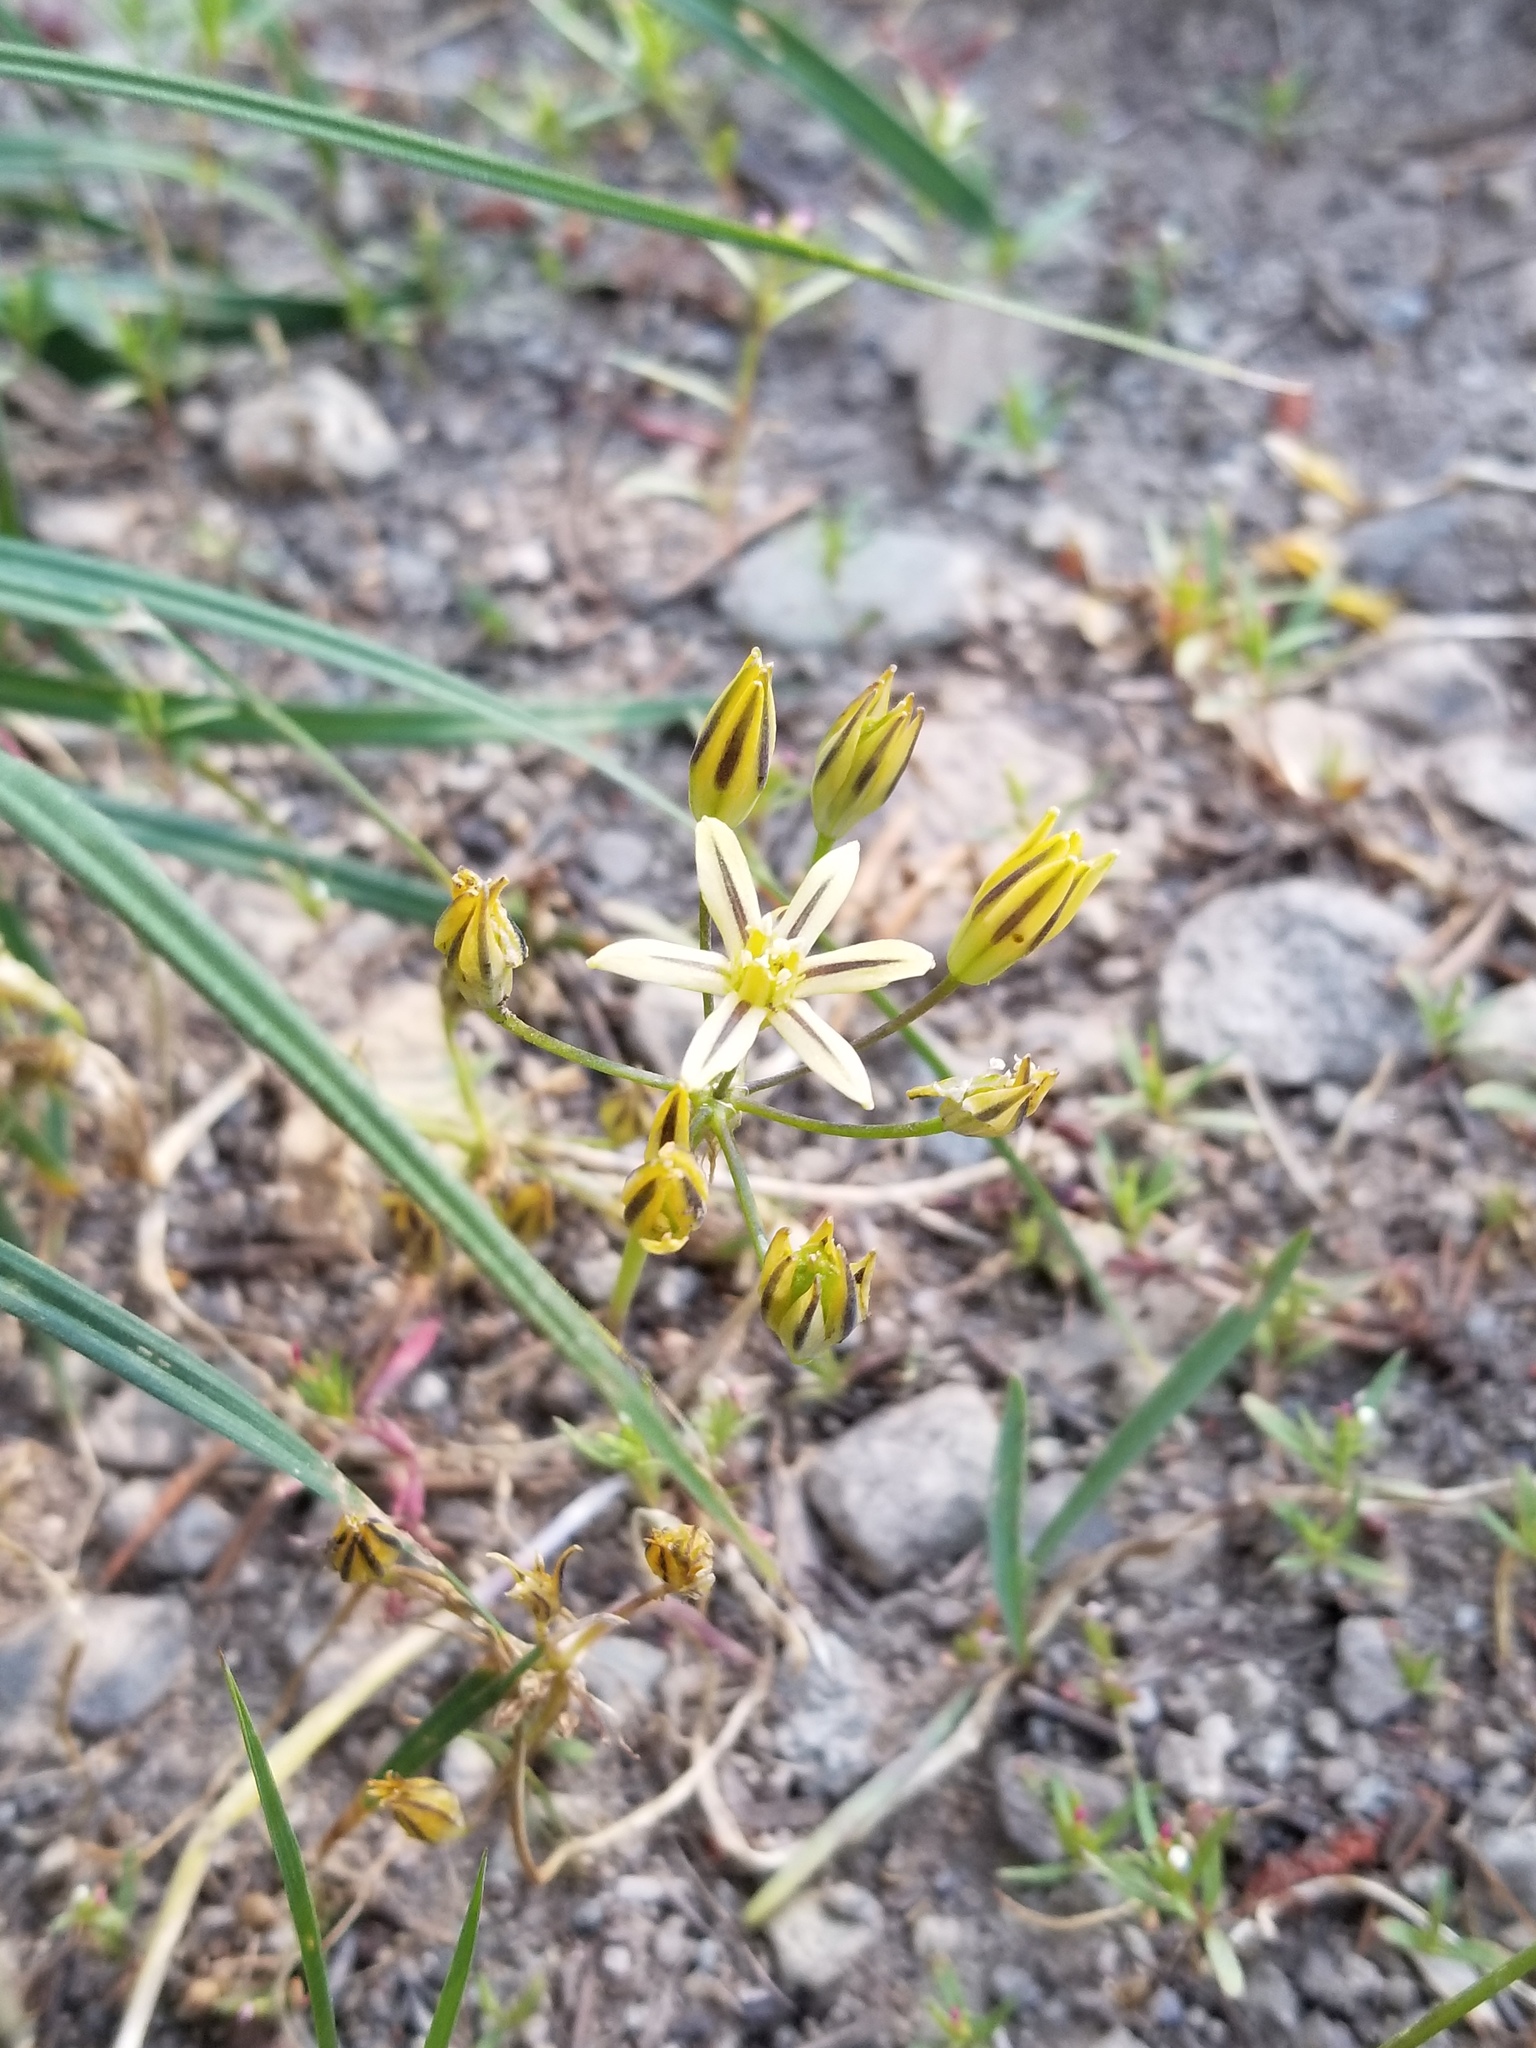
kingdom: Plantae
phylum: Tracheophyta
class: Liliopsida
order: Asparagales
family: Asparagaceae
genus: Triteleia
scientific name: Triteleia ixioides
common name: Yellow-brodiaea
